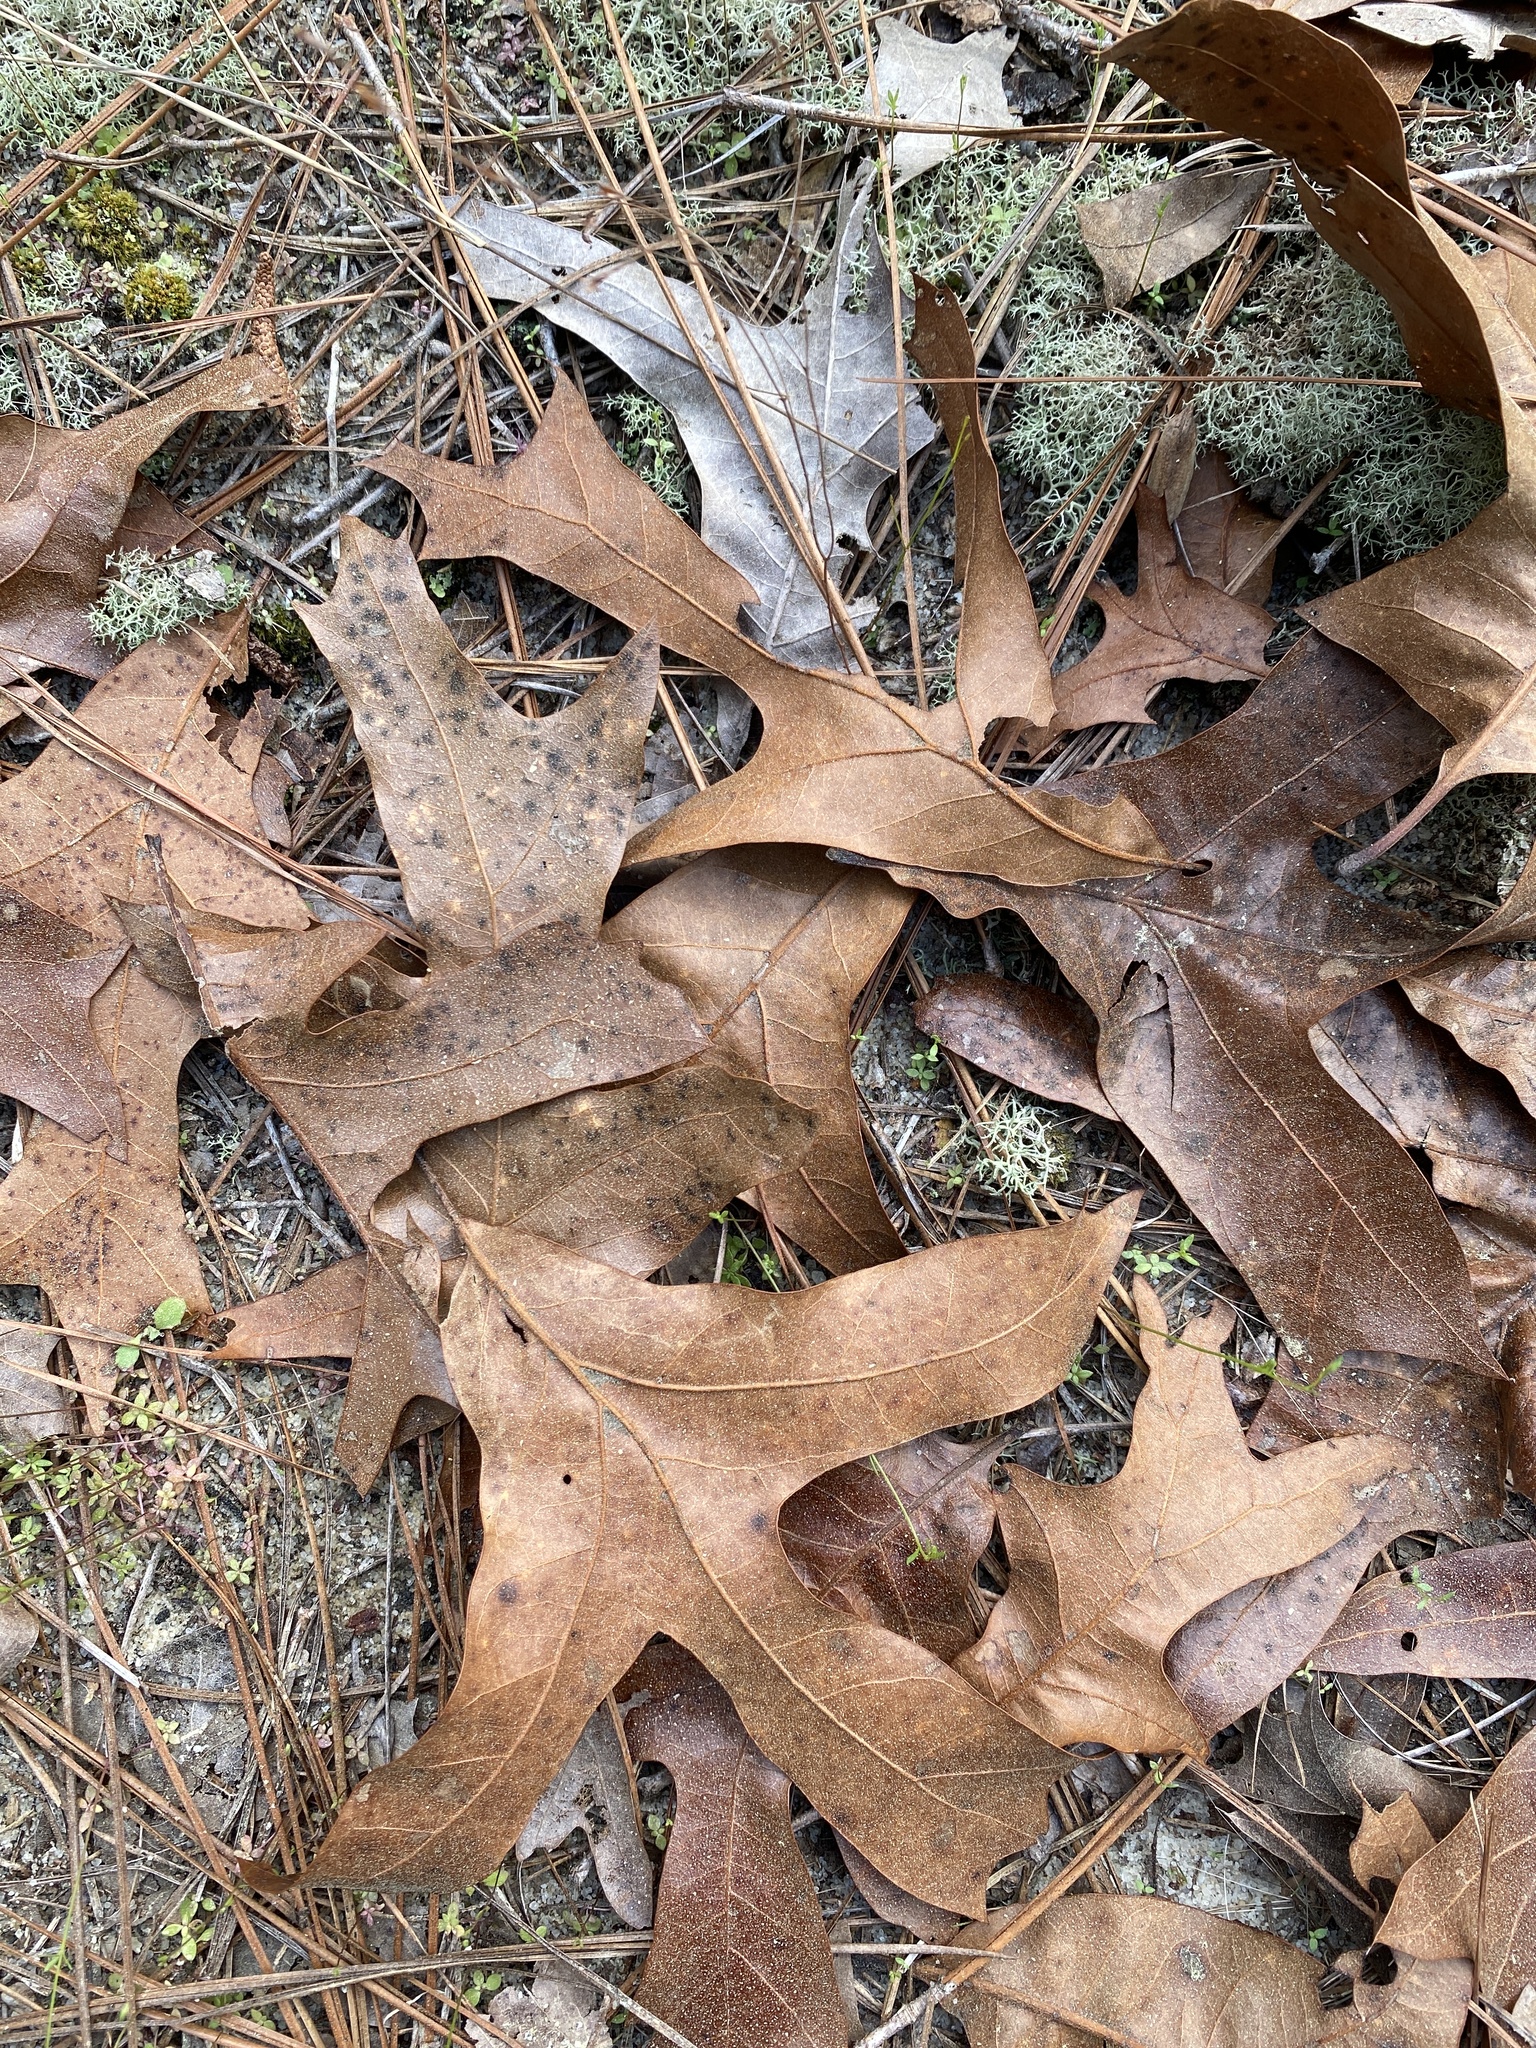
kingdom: Plantae
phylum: Tracheophyta
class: Magnoliopsida
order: Fagales
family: Fagaceae
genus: Quercus
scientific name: Quercus laevis
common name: Turkey oak
